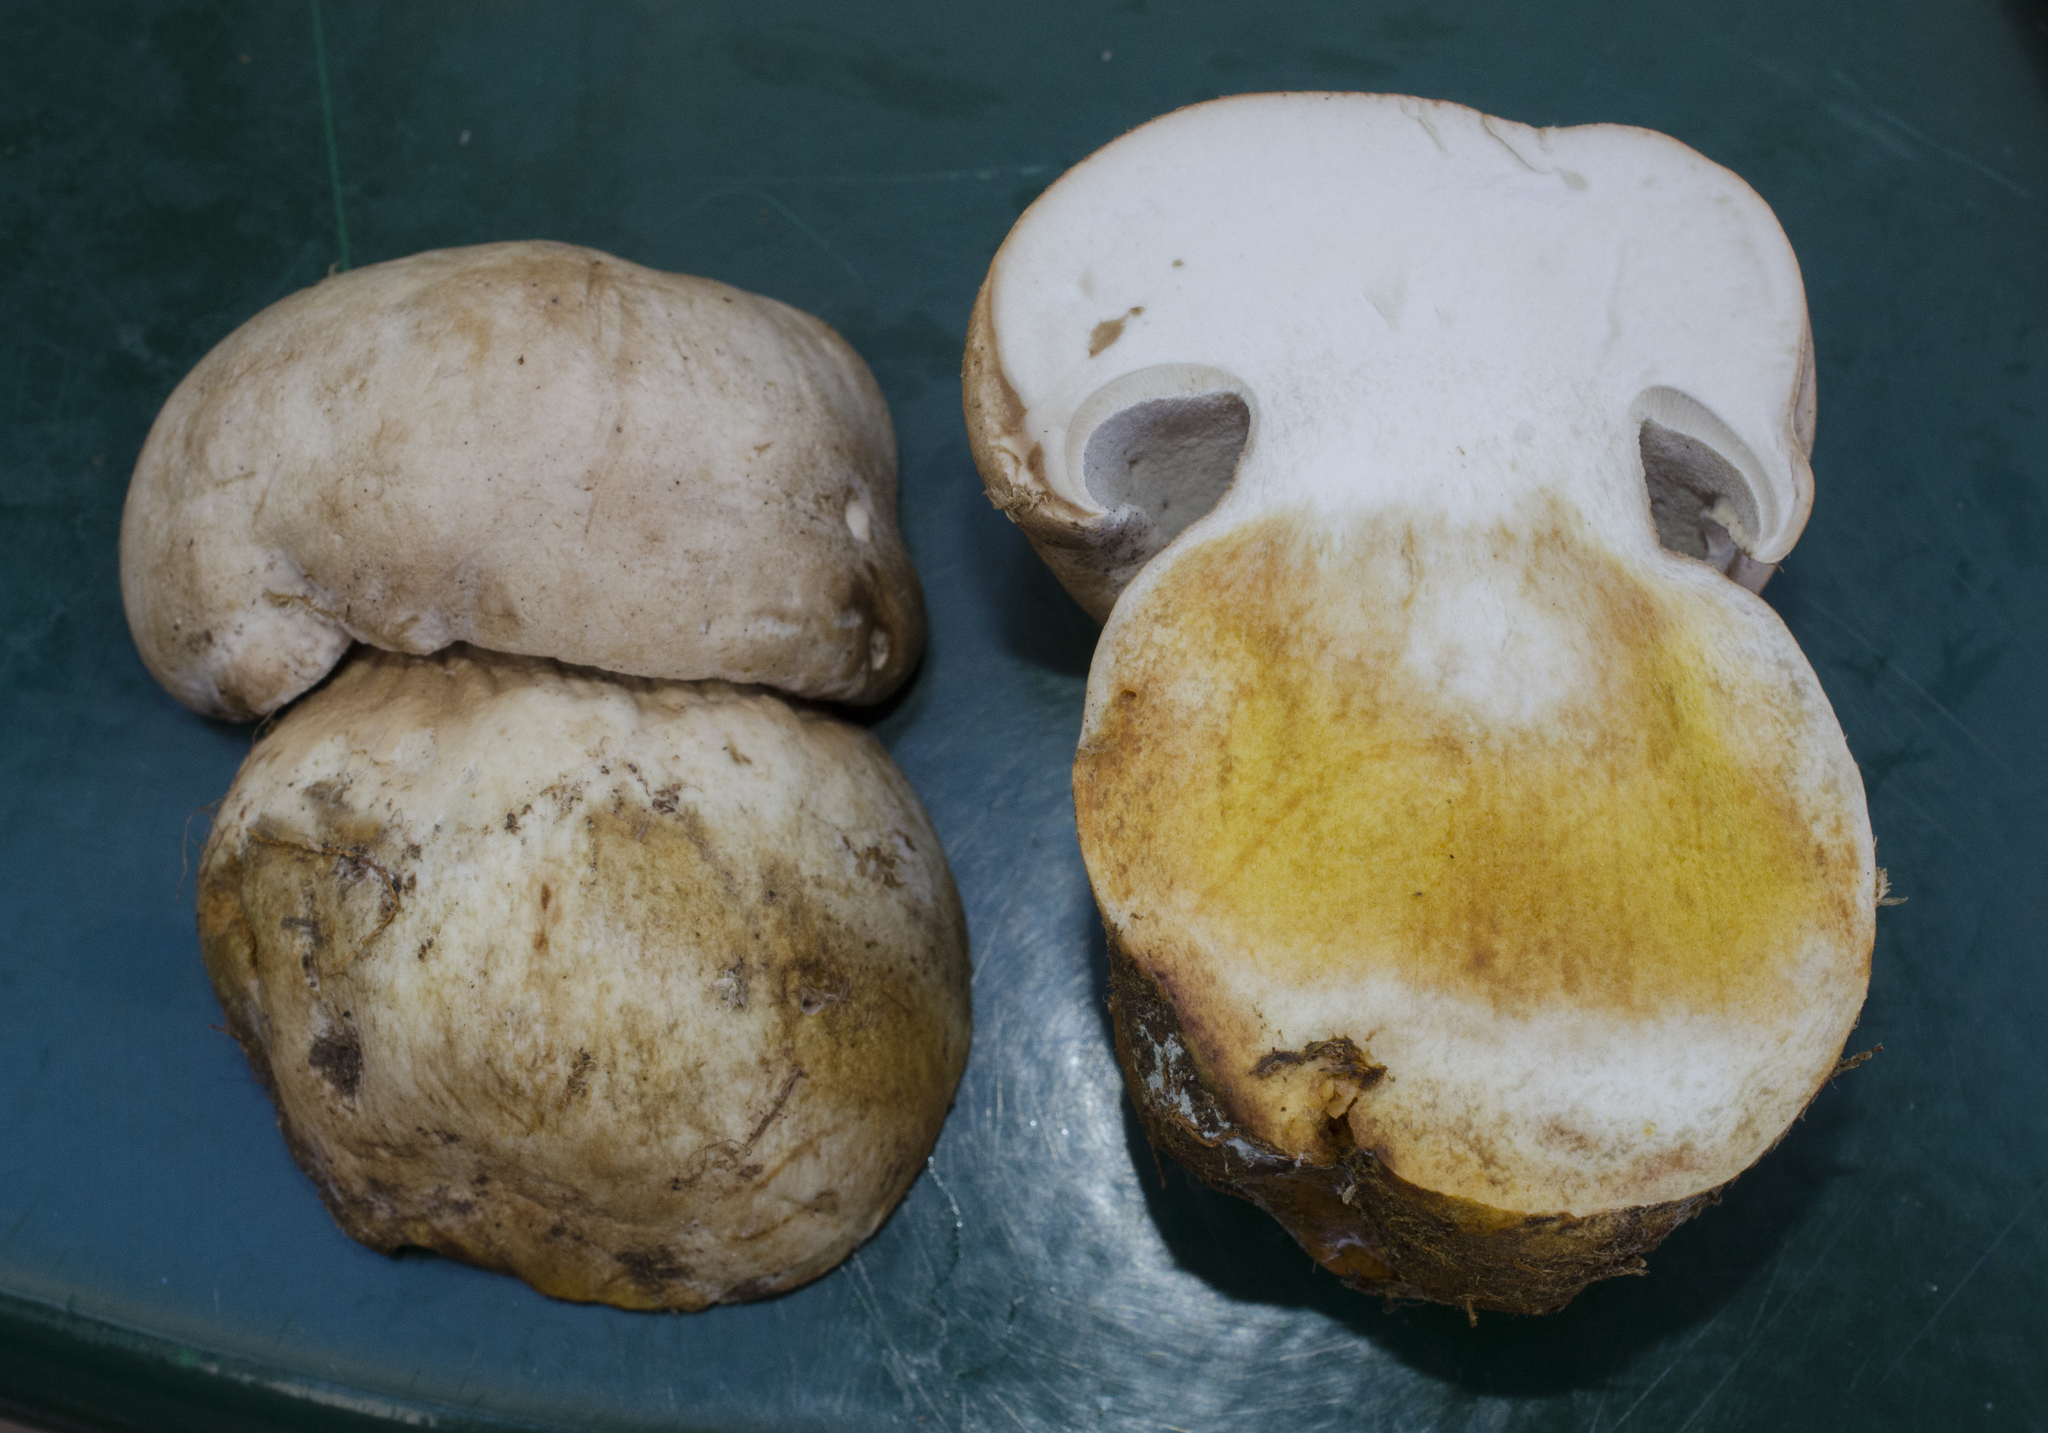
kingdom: Fungi
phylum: Basidiomycota
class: Agaricomycetes
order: Boletales
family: Boletaceae
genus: Boletus
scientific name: Boletus barrowsii
